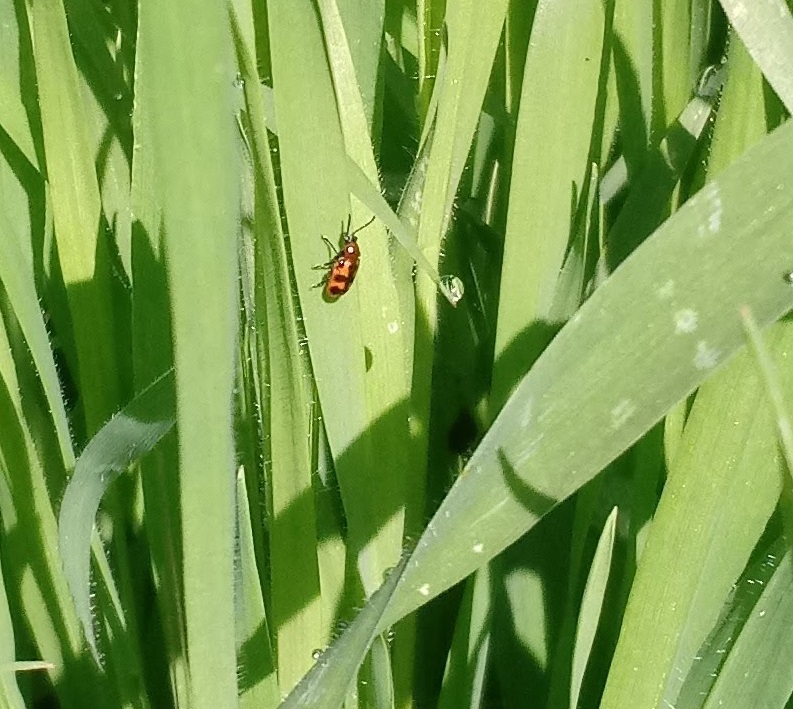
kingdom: Animalia
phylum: Arthropoda
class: Insecta
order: Coleoptera
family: Chrysomelidae
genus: Crioceris
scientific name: Crioceris bicruciata
